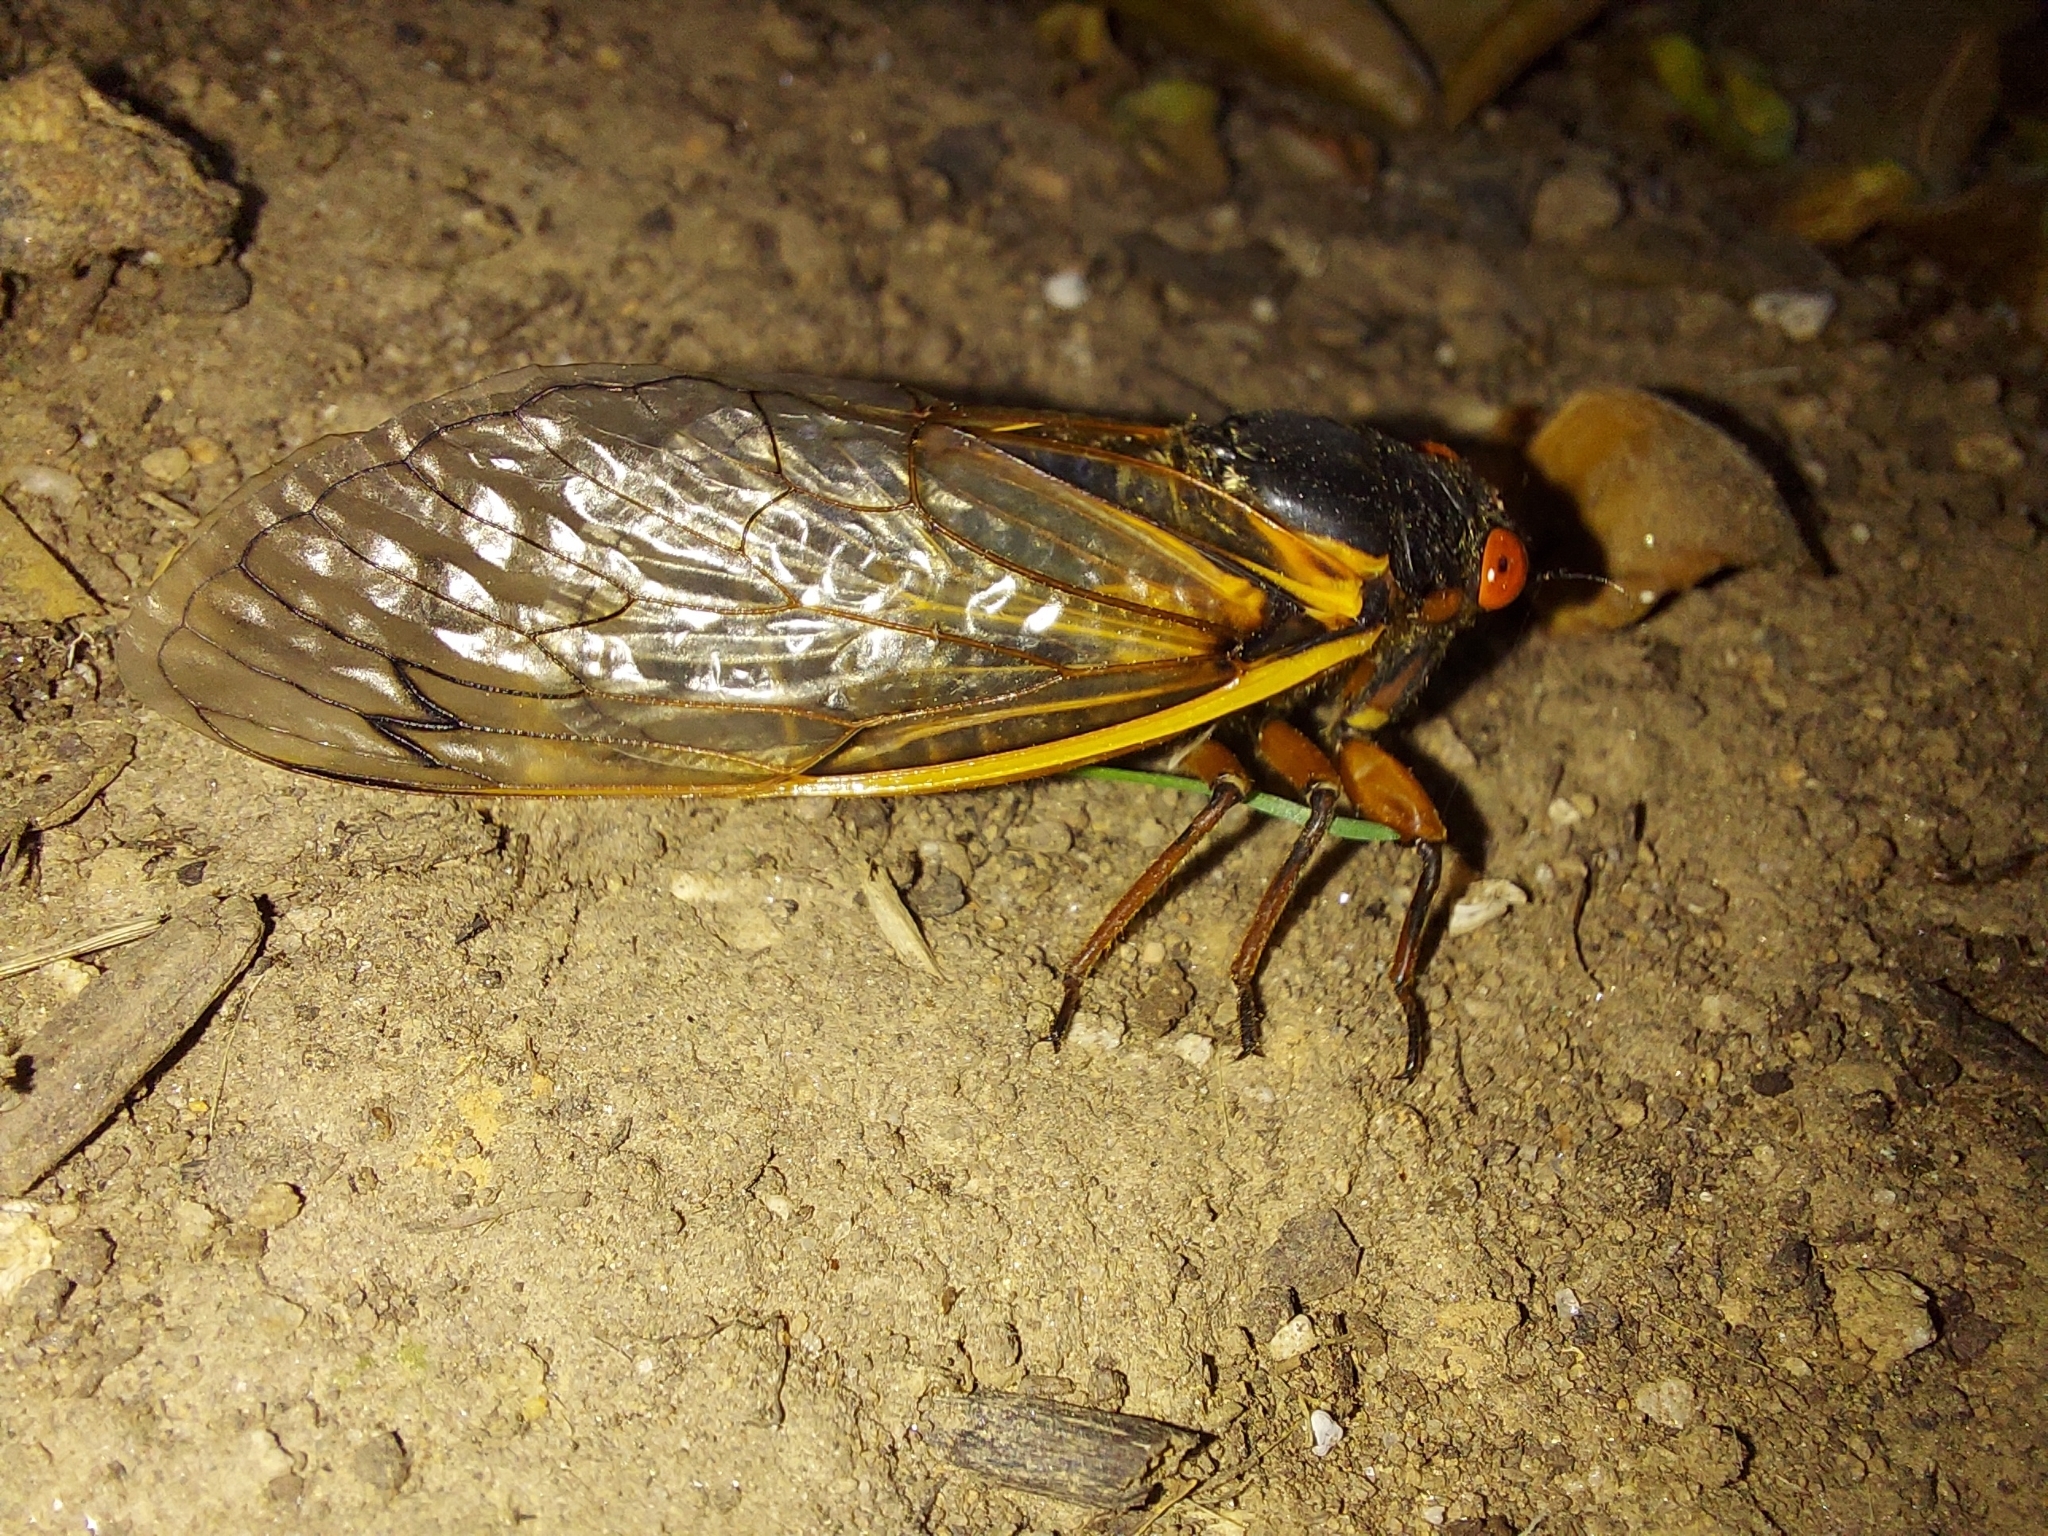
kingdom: Animalia
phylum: Arthropoda
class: Insecta
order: Hemiptera
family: Cicadidae
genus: Magicicada
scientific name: Magicicada septendecim
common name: Periodical cicada
